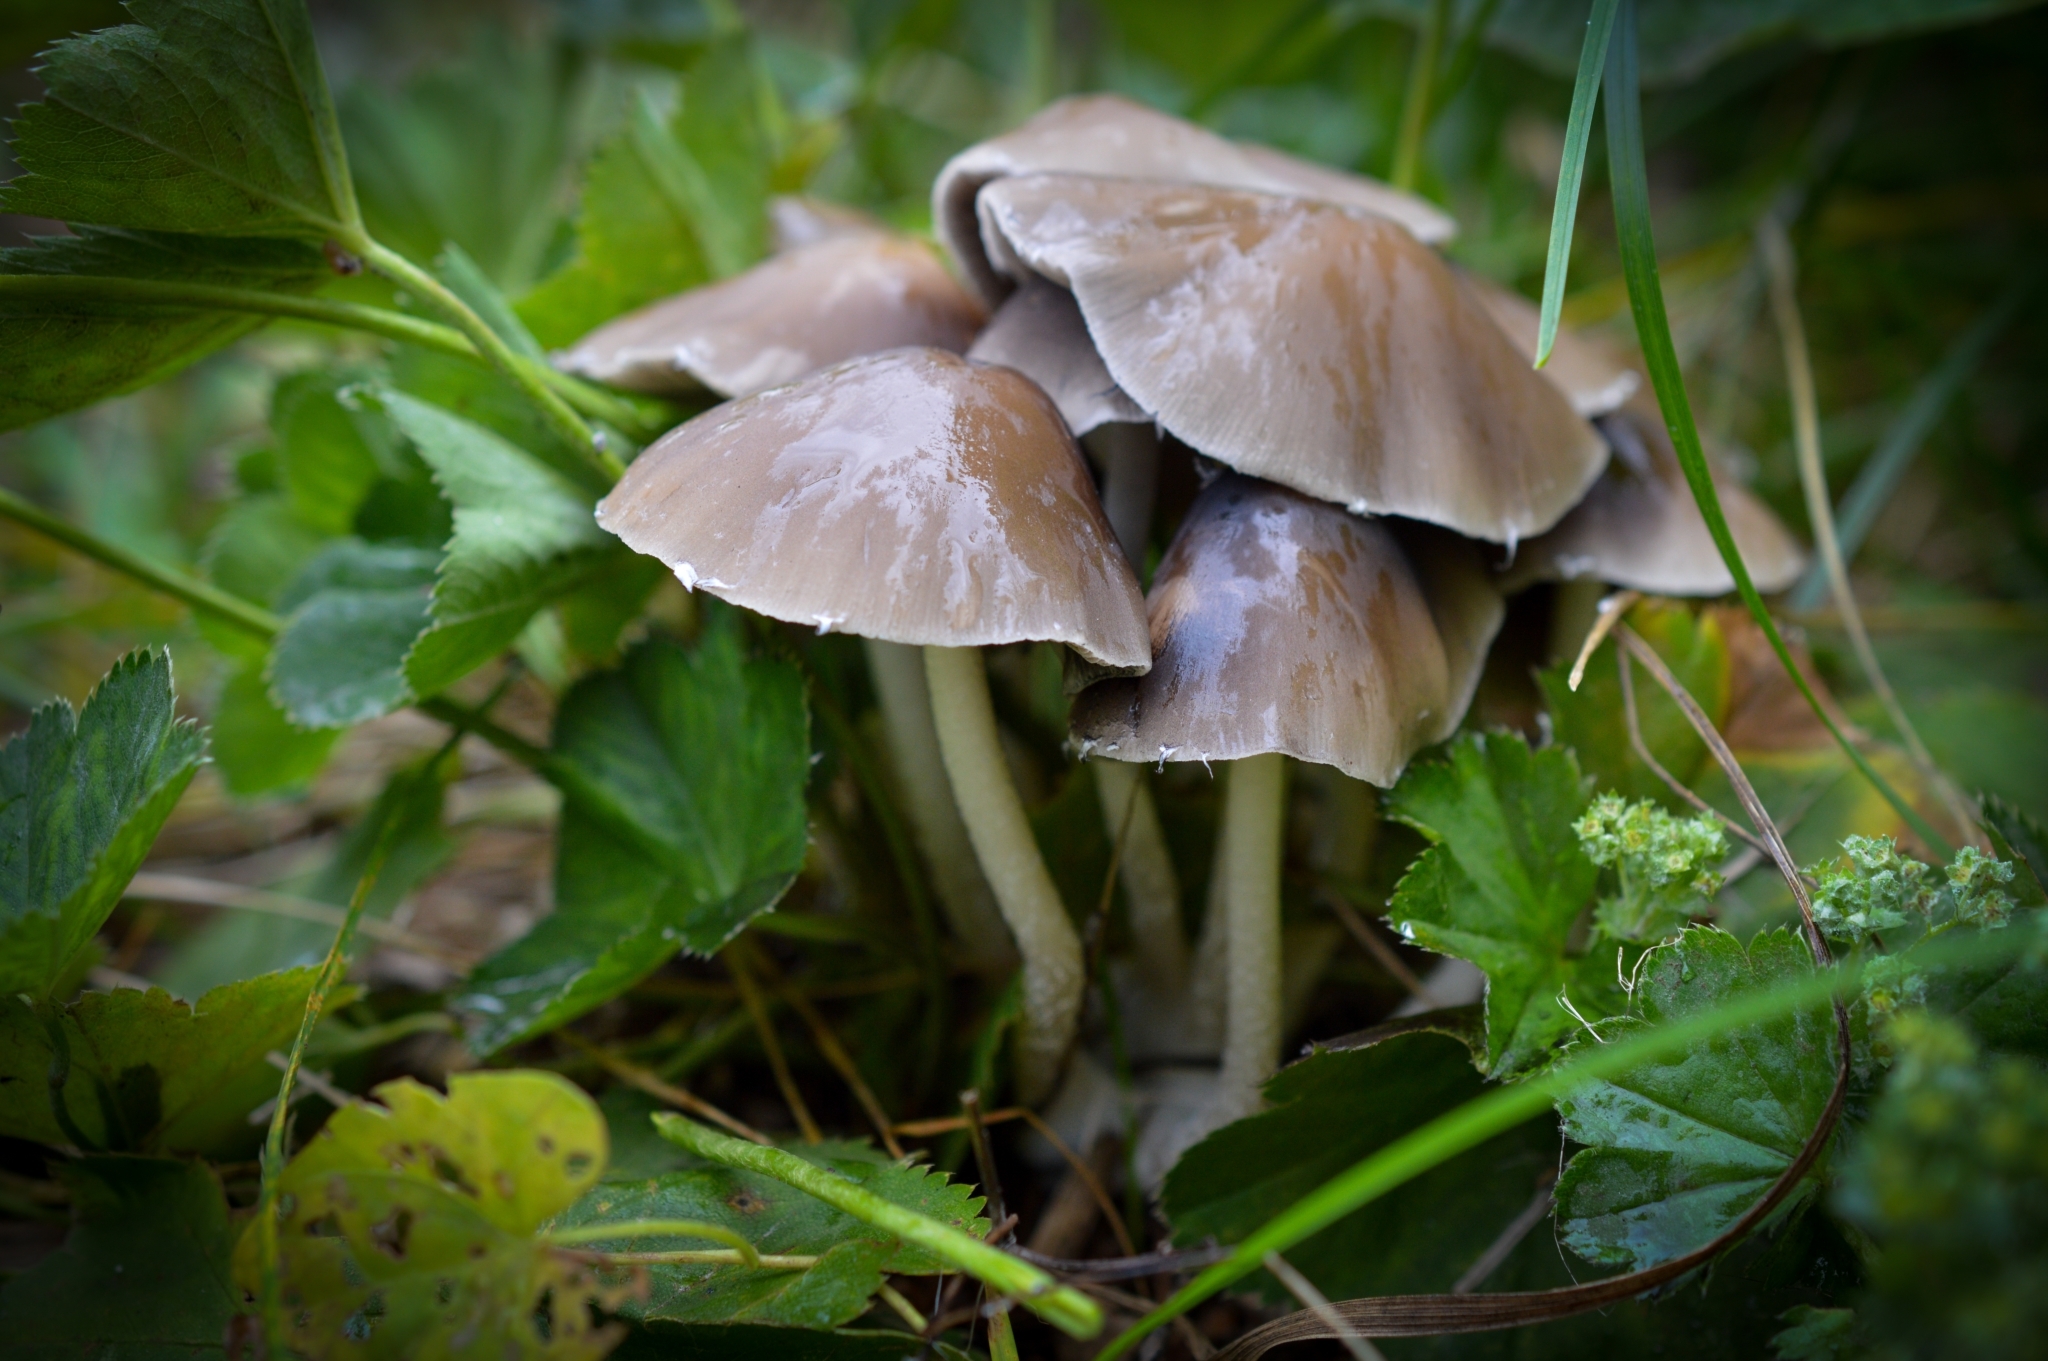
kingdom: Fungi
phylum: Basidiomycota
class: Agaricomycetes
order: Agaricales
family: Psathyrellaceae
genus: Psathyrella
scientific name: Psathyrella longipes
